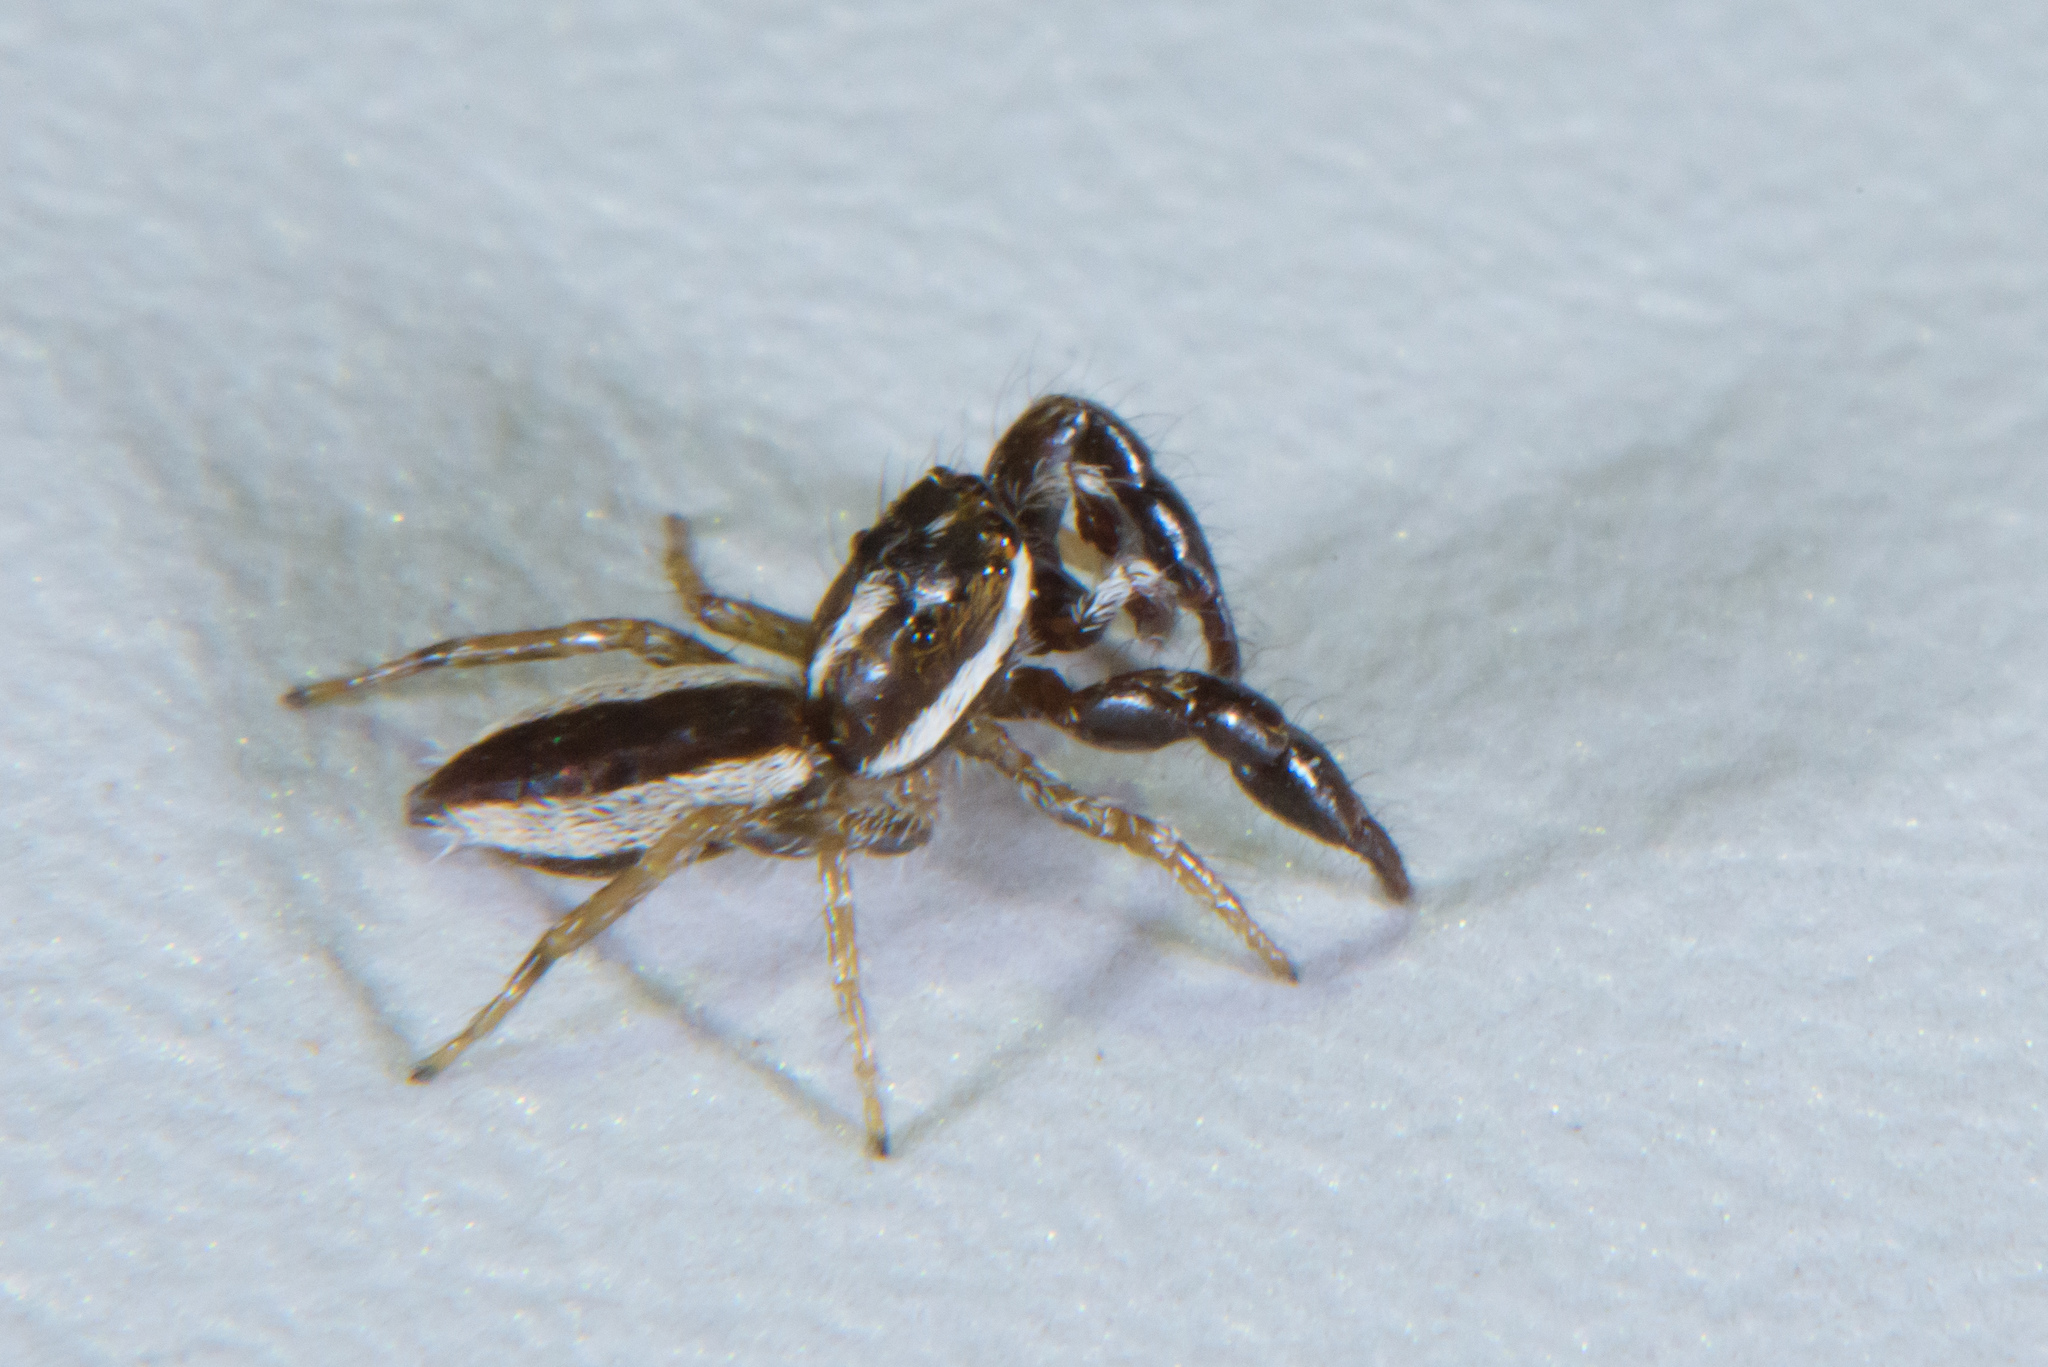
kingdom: Animalia
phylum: Arthropoda
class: Arachnida
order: Araneae
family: Salticidae
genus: Okinawicius
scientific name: Okinawicius tokarensis
